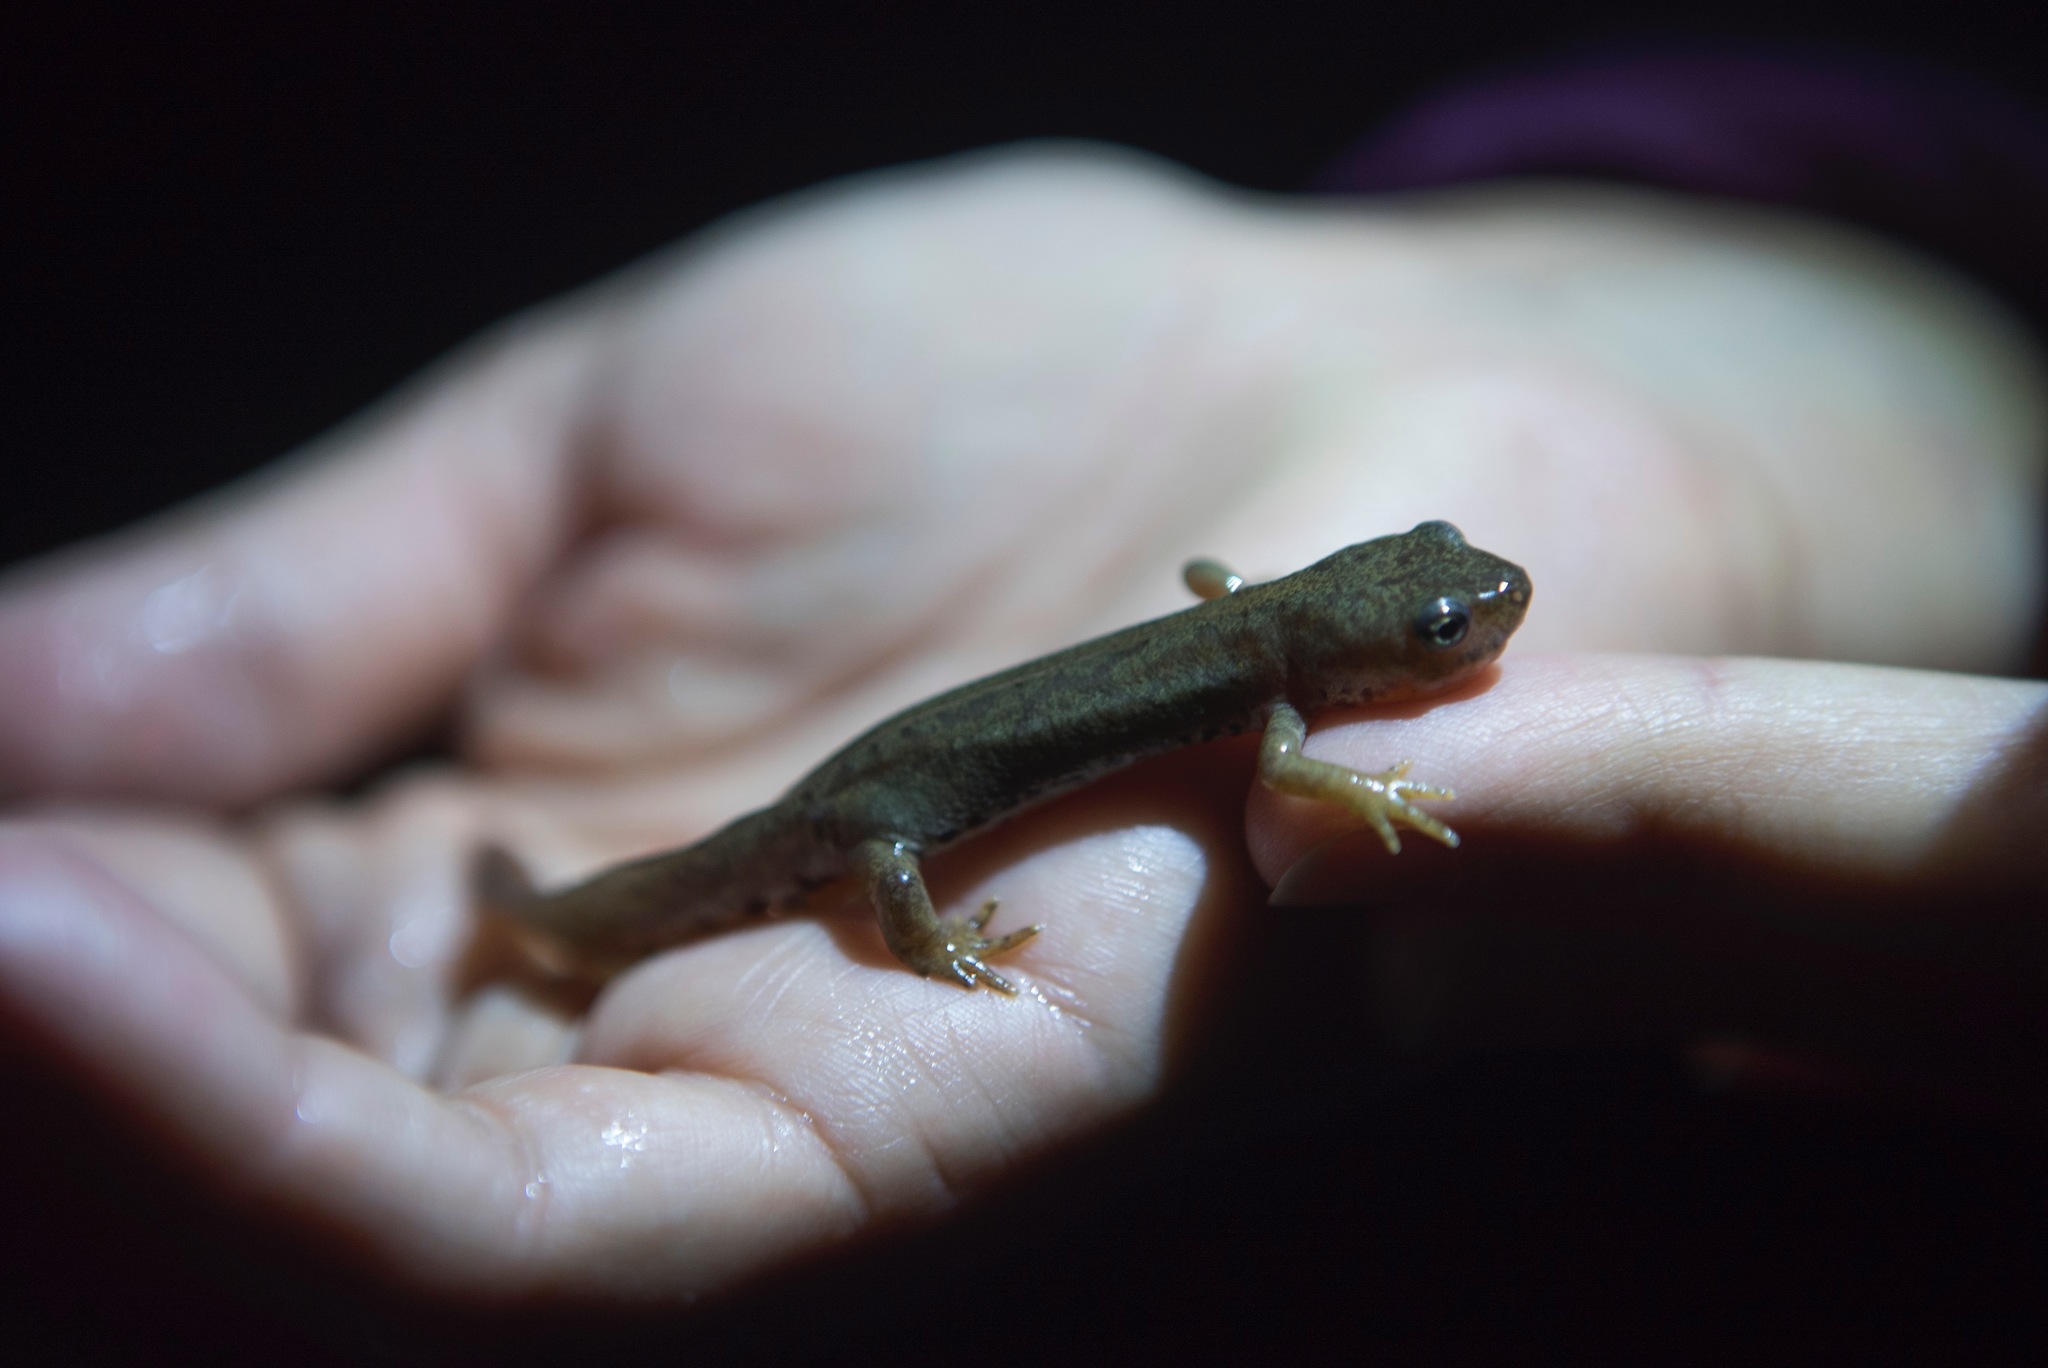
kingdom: Animalia
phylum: Chordata
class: Amphibia
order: Caudata
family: Salamandridae
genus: Ichthyosaura
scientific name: Ichthyosaura alpestris
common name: Alpine newt
